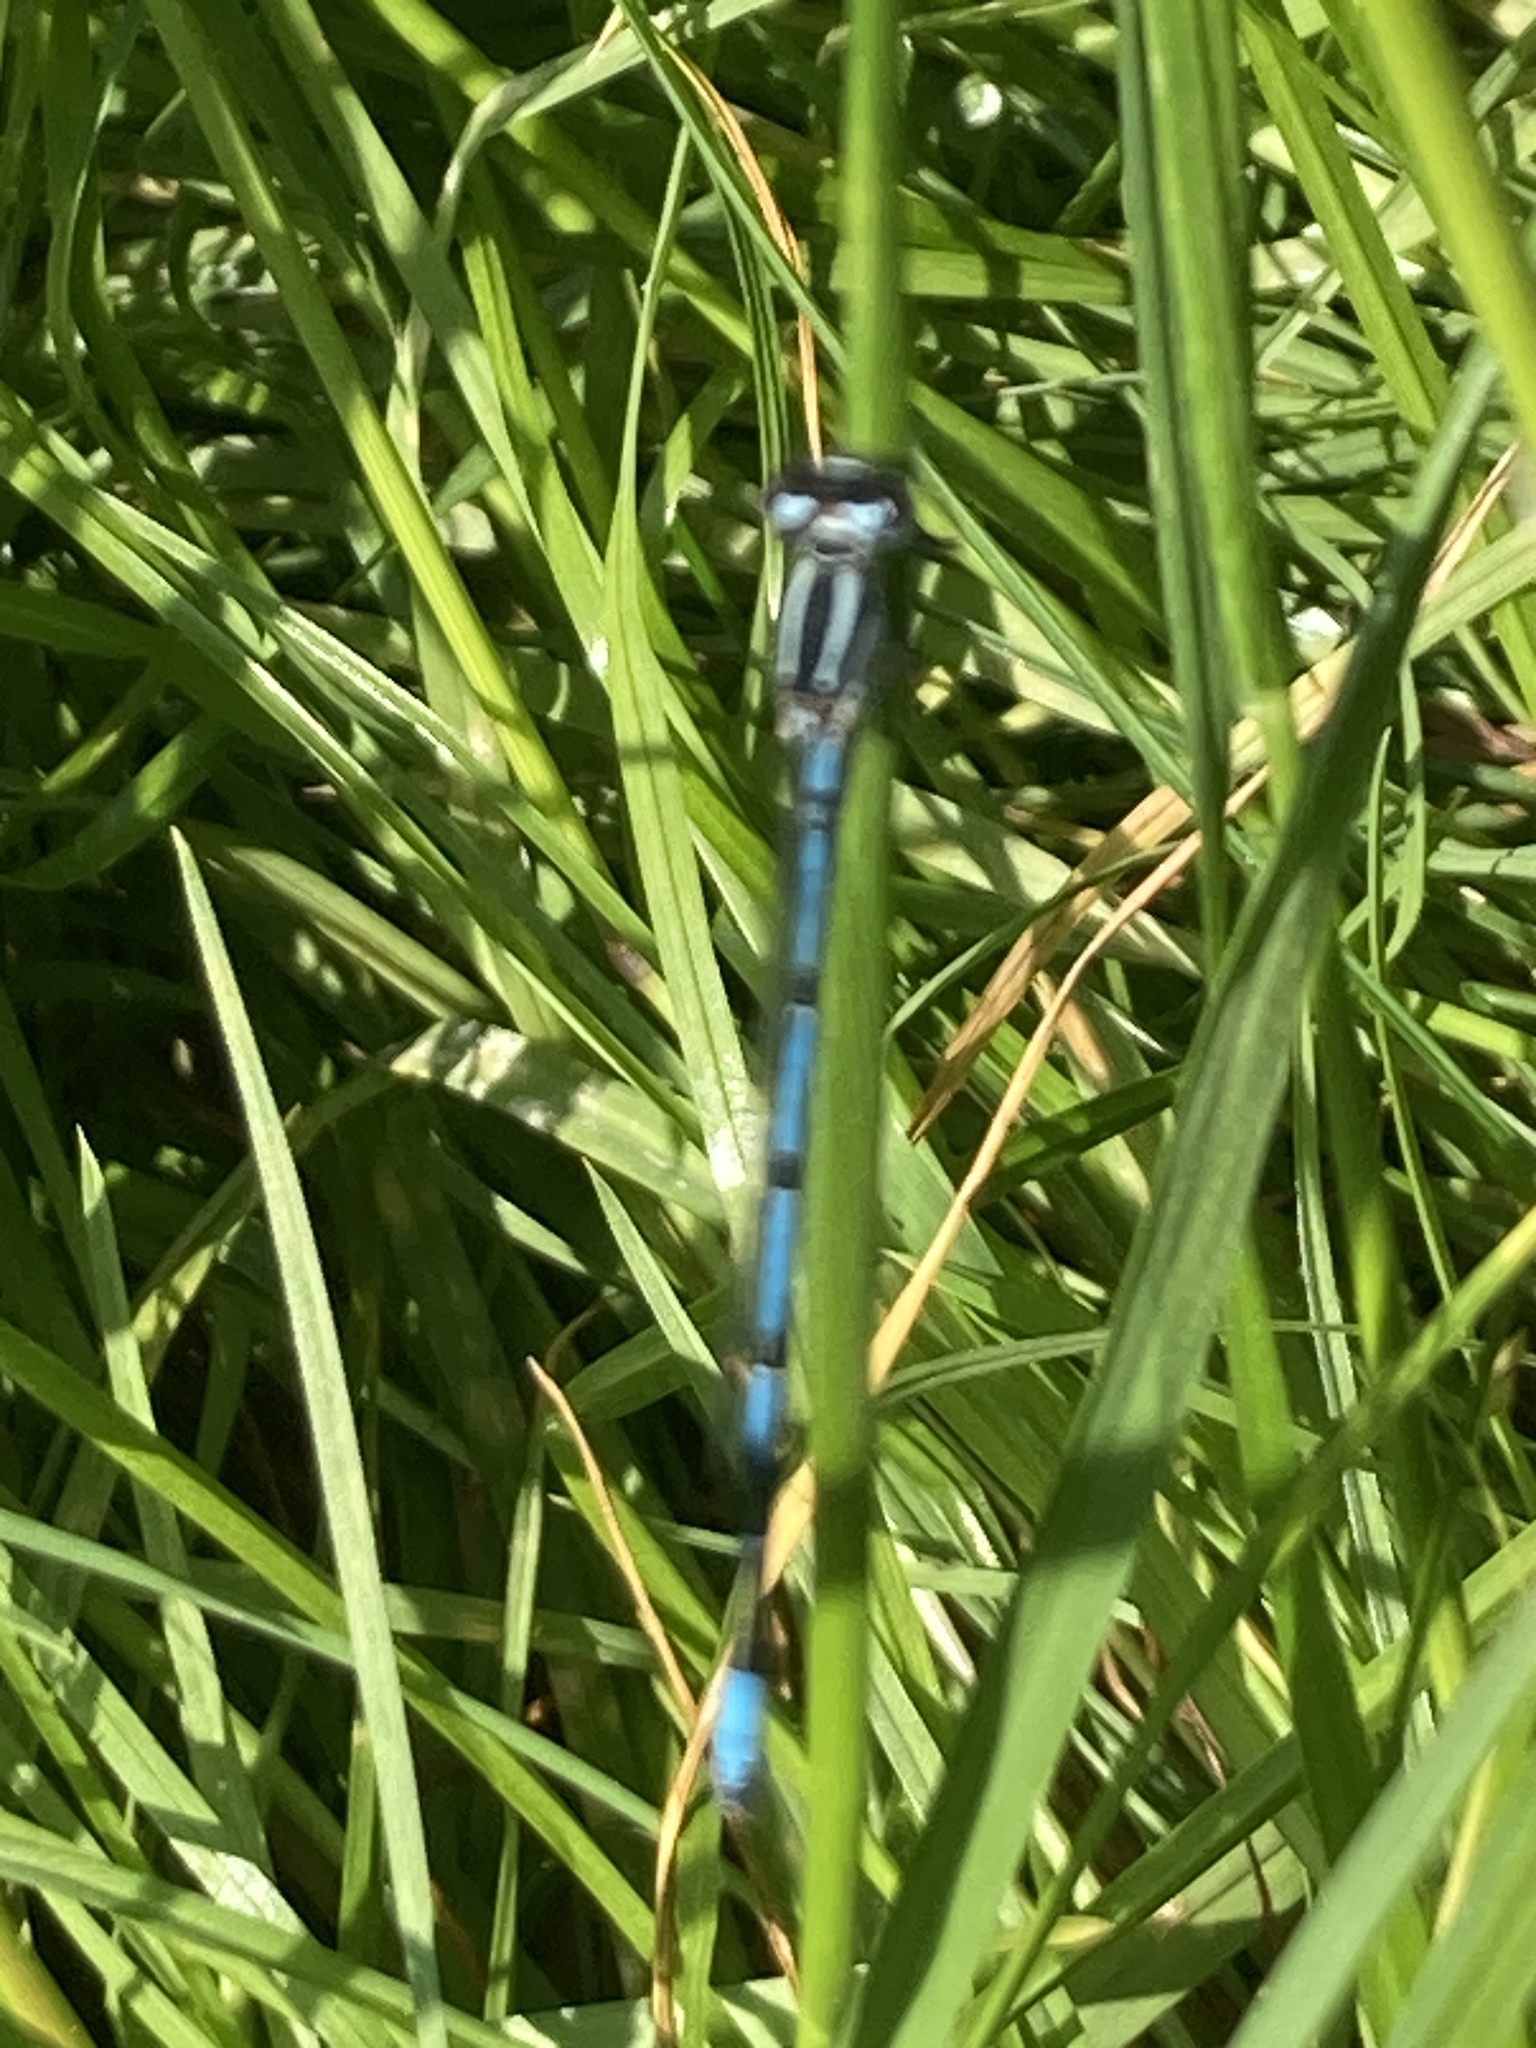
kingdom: Animalia
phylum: Arthropoda
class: Insecta
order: Odonata
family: Coenagrionidae
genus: Coenagrion
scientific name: Coenagrion puella
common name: Azure damselfly
